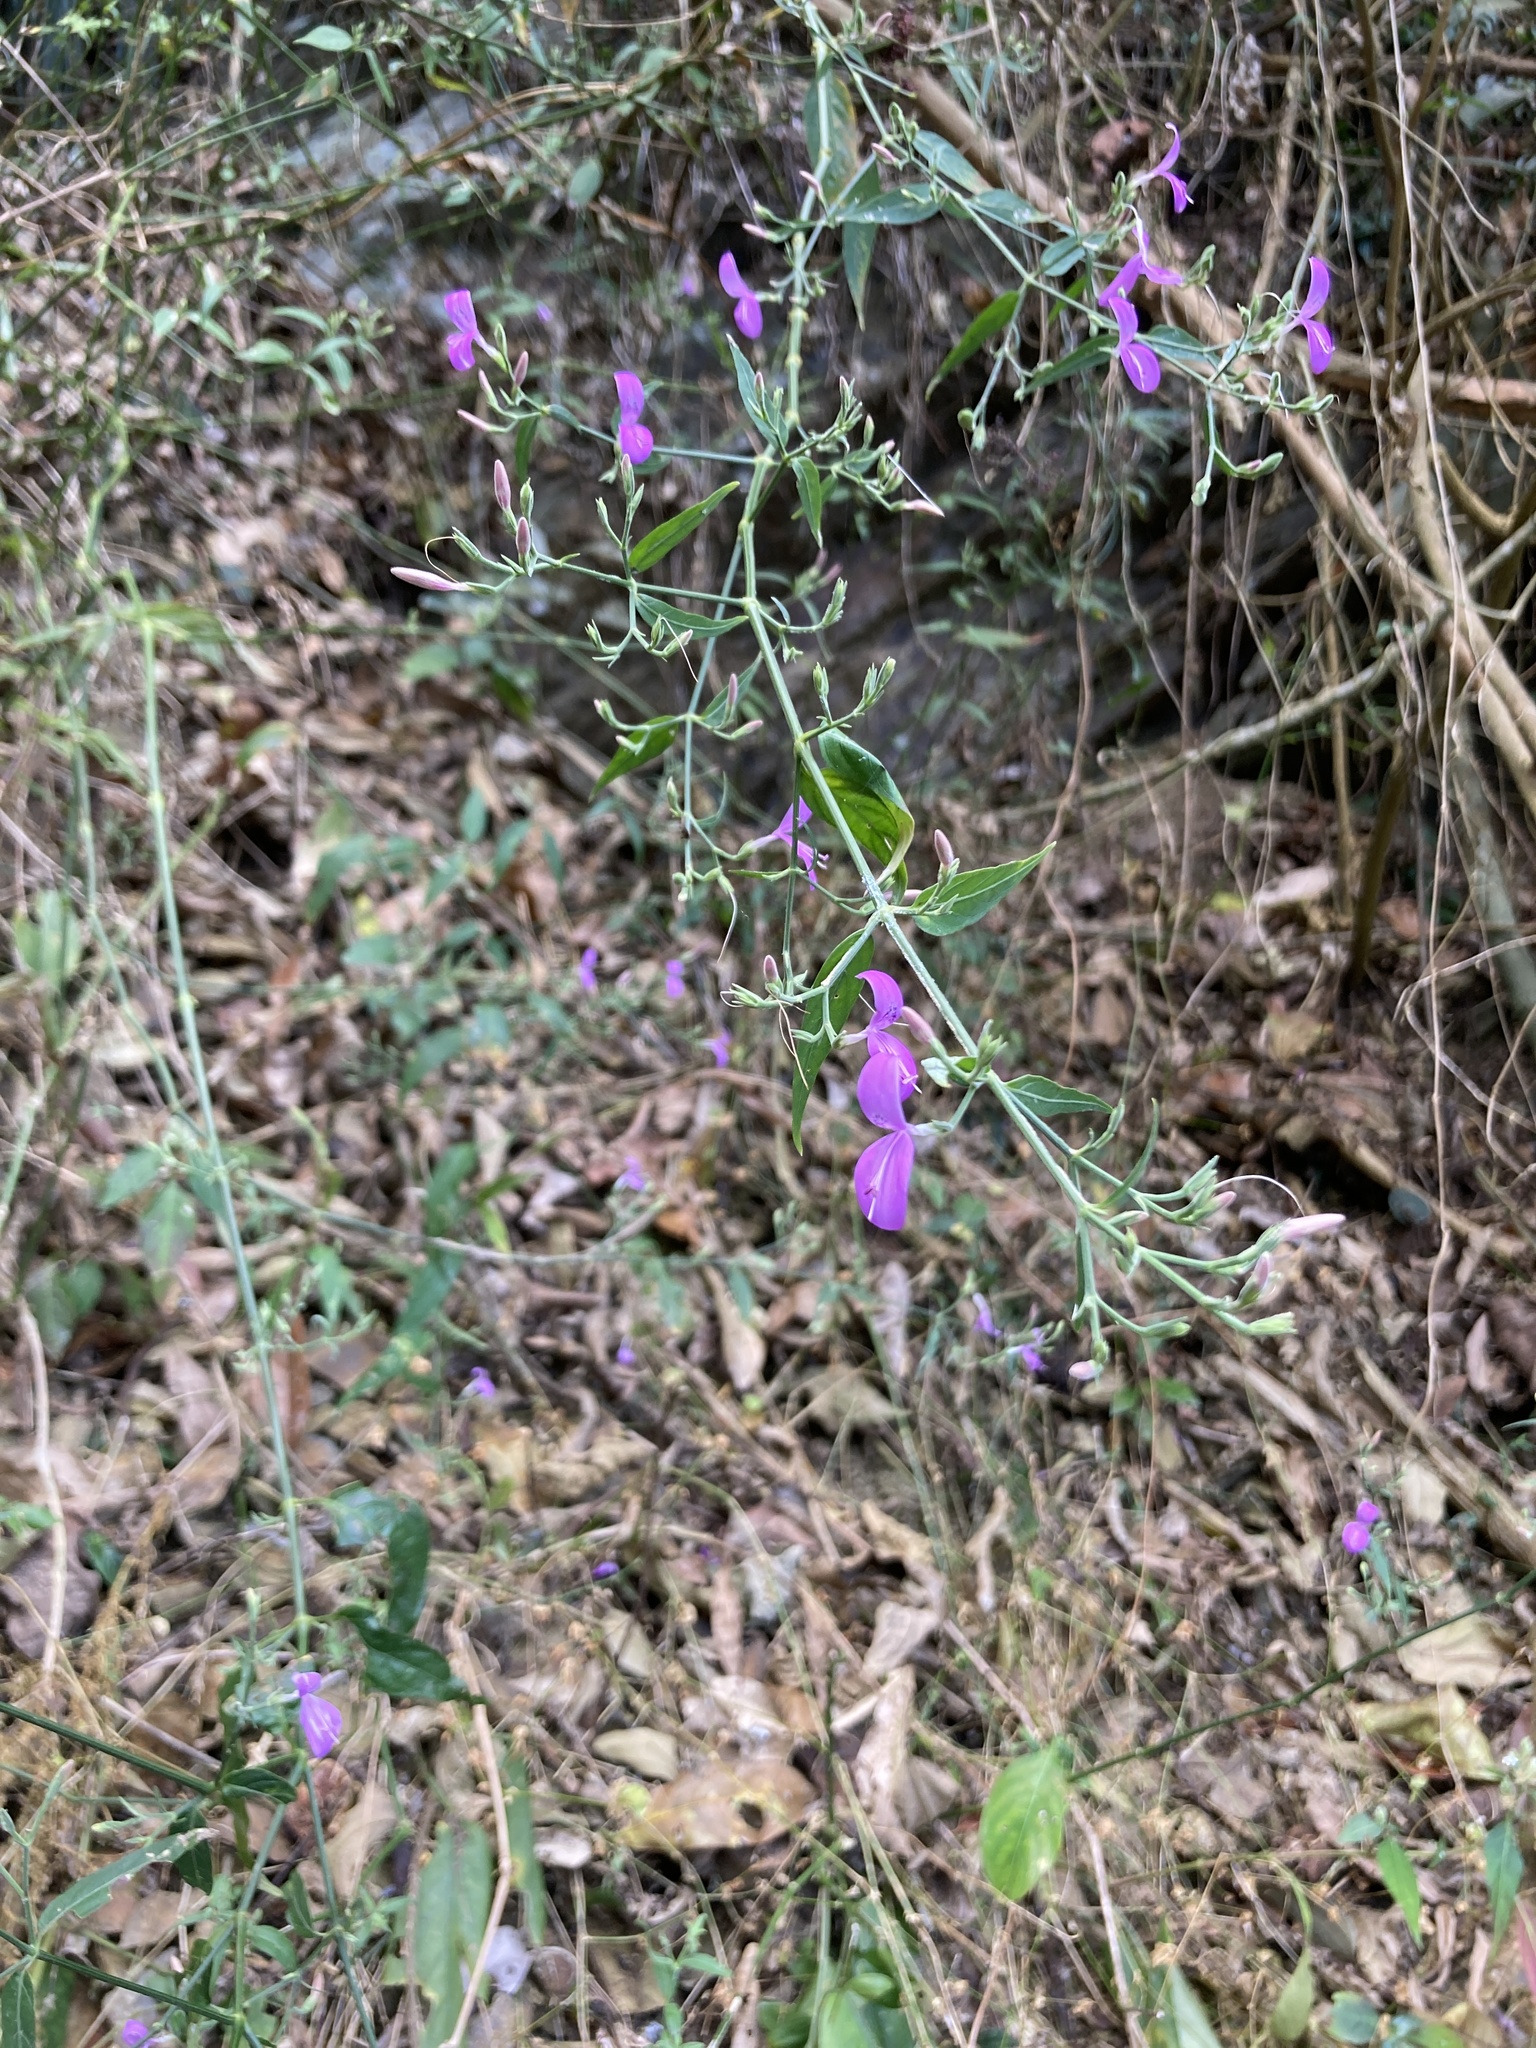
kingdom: Plantae
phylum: Tracheophyta
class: Magnoliopsida
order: Lamiales
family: Acanthaceae
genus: Hypoestes
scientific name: Hypoestes cumingiana
